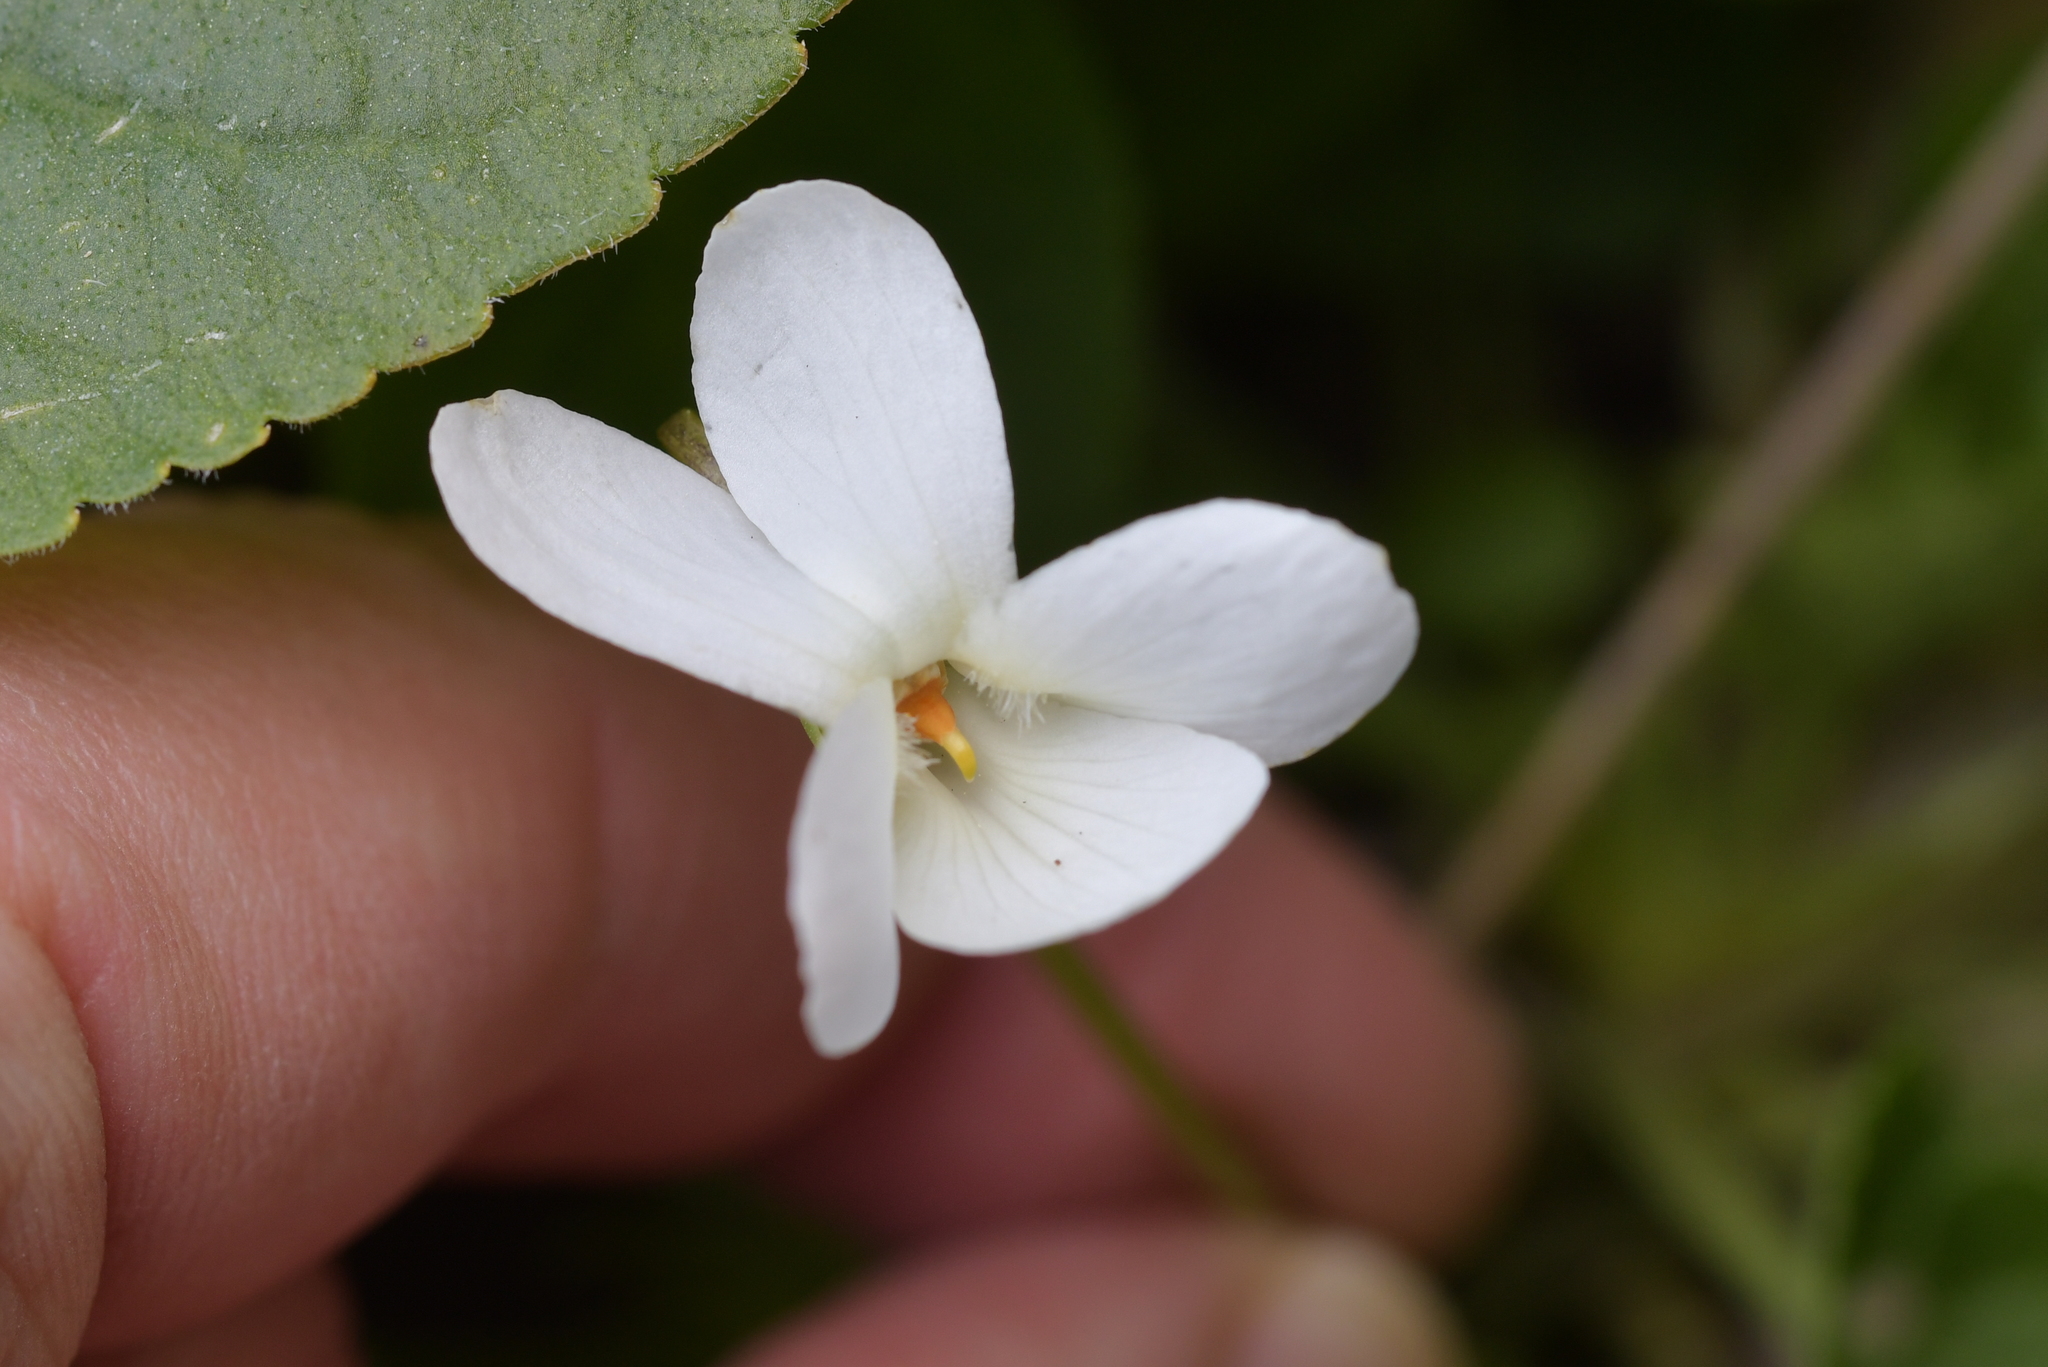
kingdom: Plantae
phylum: Tracheophyta
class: Magnoliopsida
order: Malpighiales
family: Violaceae
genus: Viola
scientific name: Viola odorata
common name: Sweet violet
